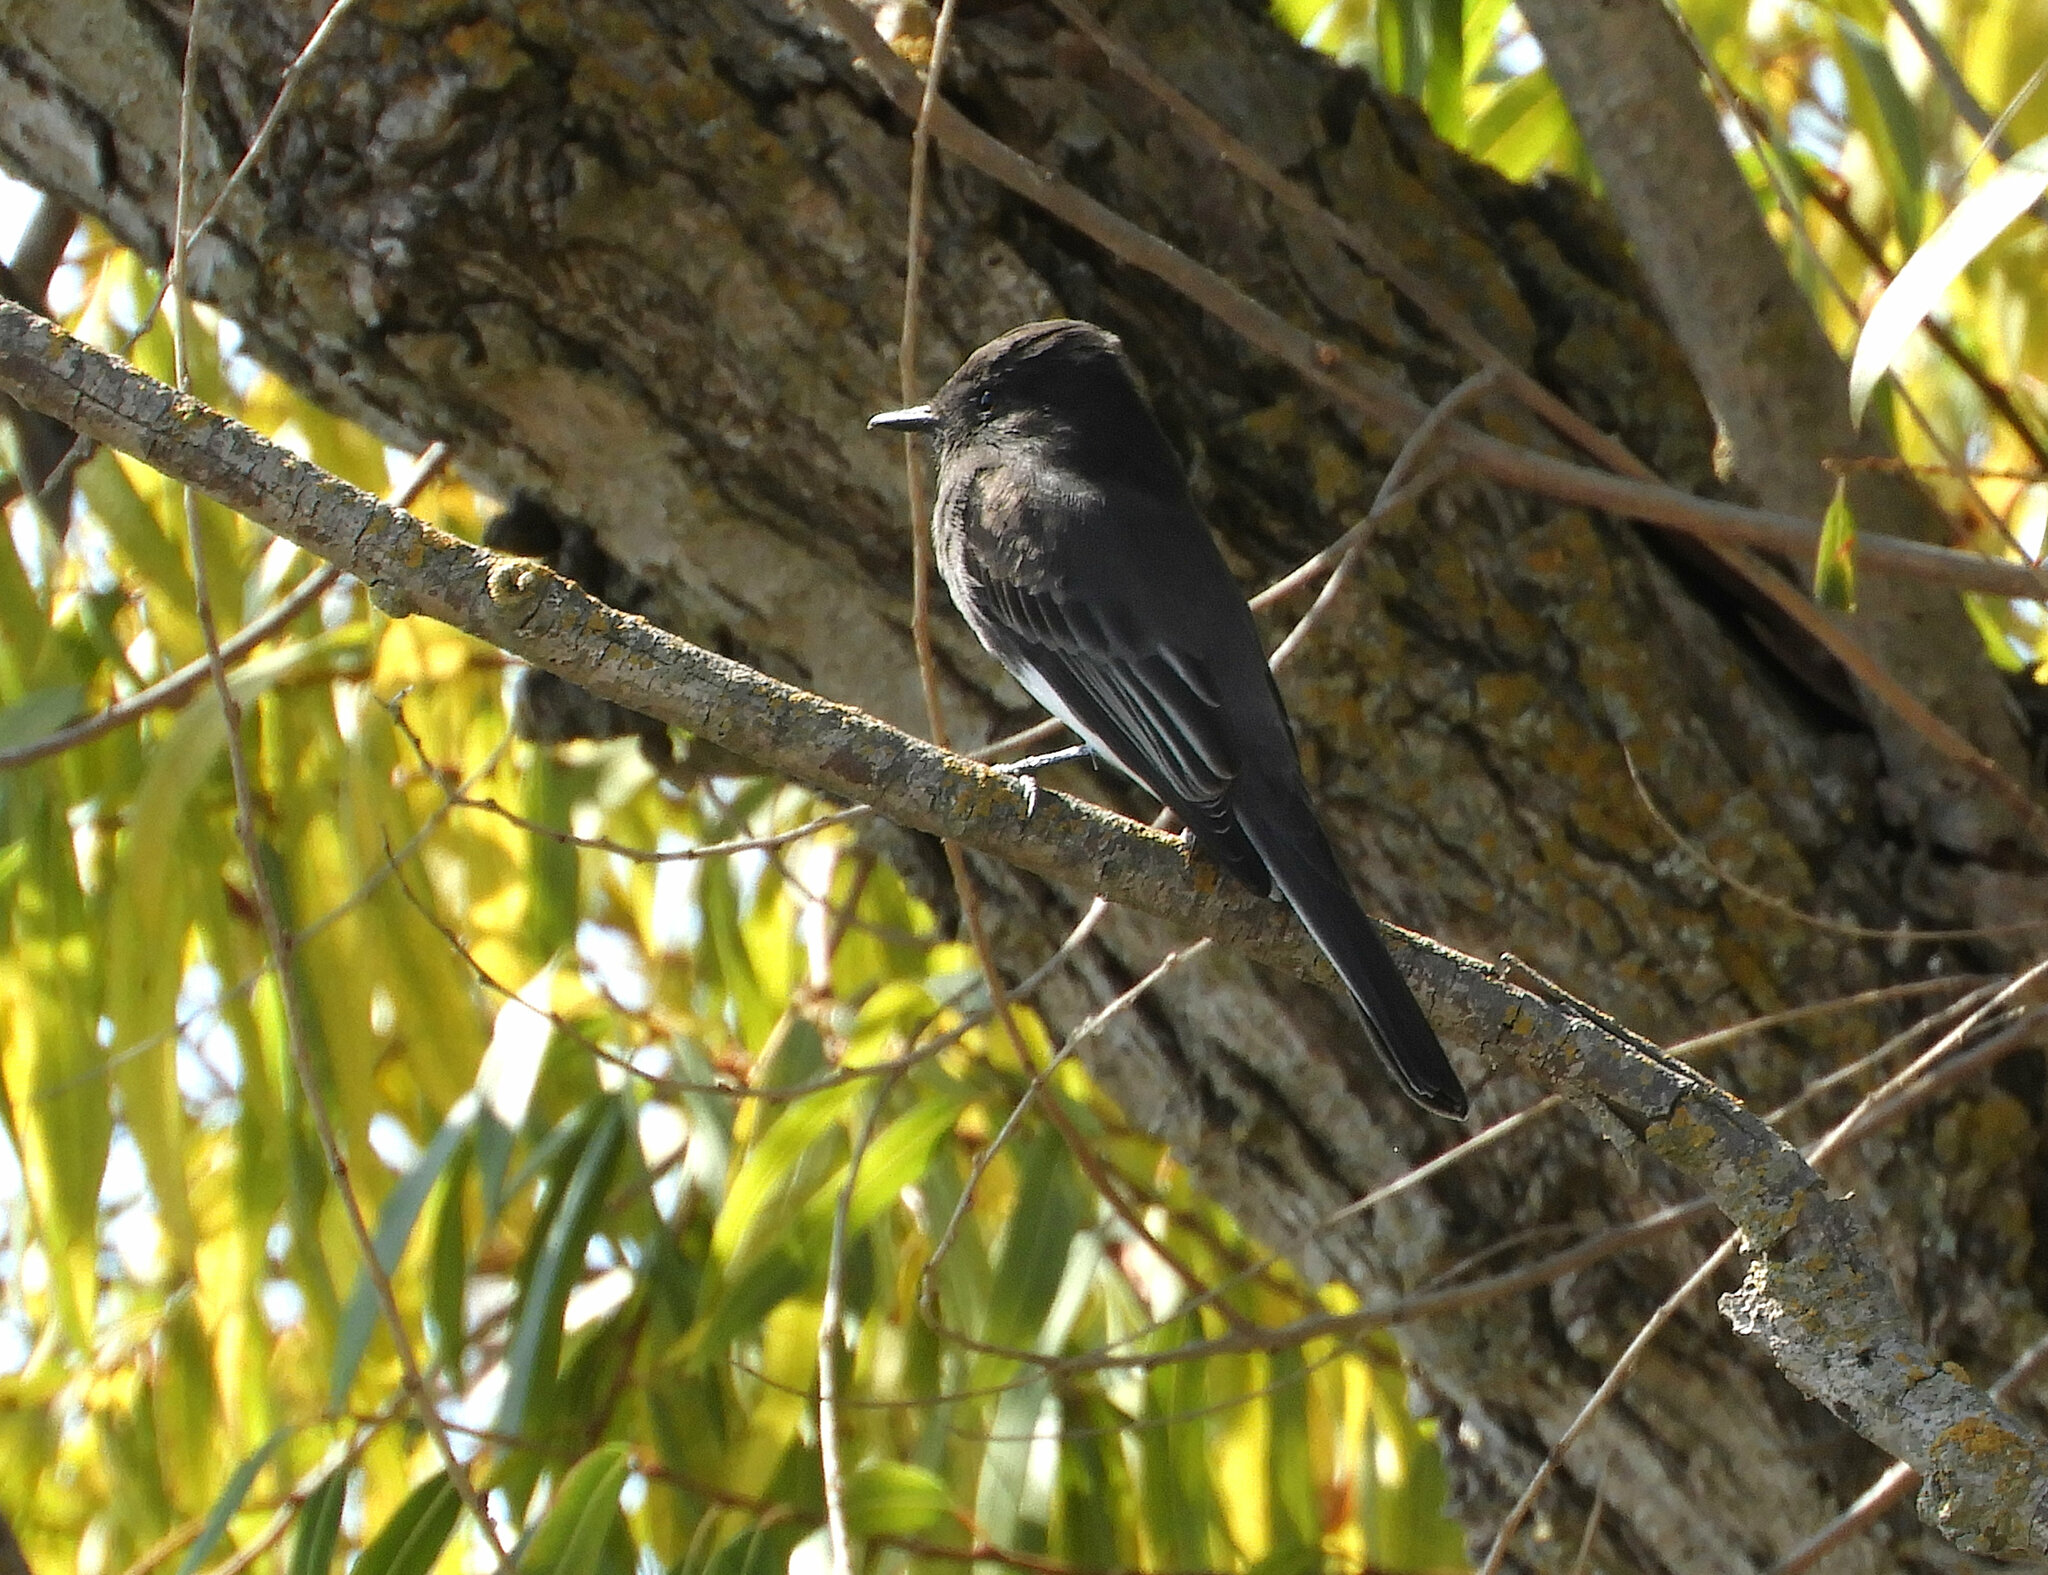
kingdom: Animalia
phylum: Chordata
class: Aves
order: Passeriformes
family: Tyrannidae
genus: Sayornis
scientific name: Sayornis nigricans
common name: Black phoebe
